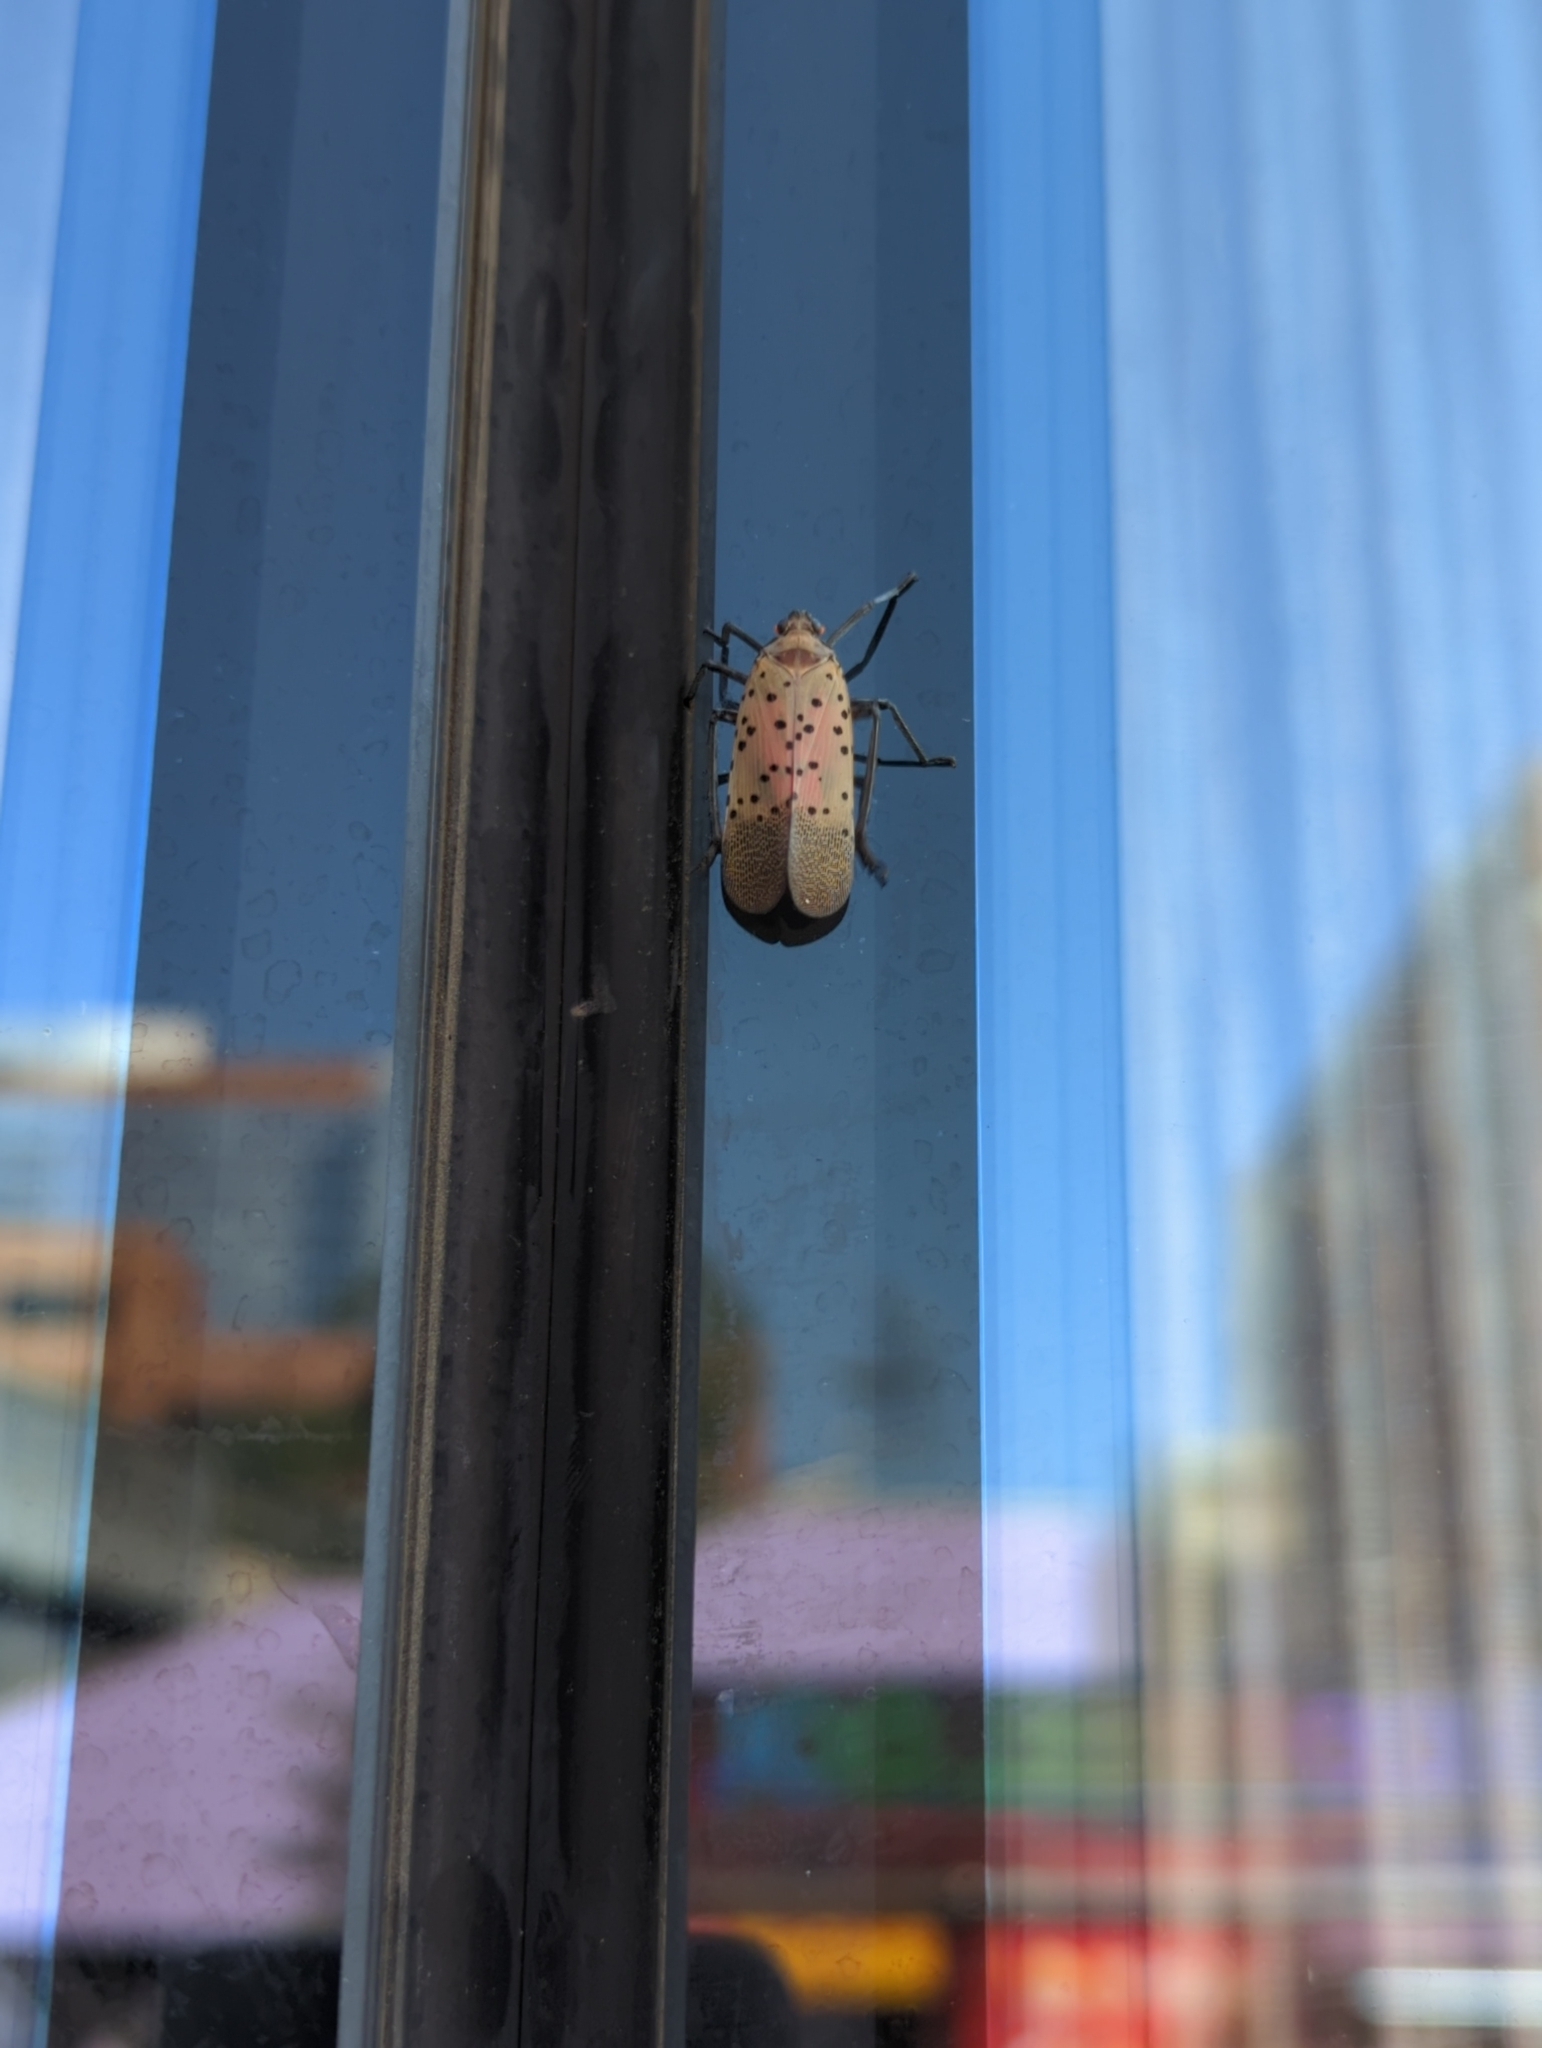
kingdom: Animalia
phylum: Arthropoda
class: Insecta
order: Hemiptera
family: Fulgoridae
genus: Lycorma
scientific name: Lycorma delicatula
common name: Spotted lanternfly
